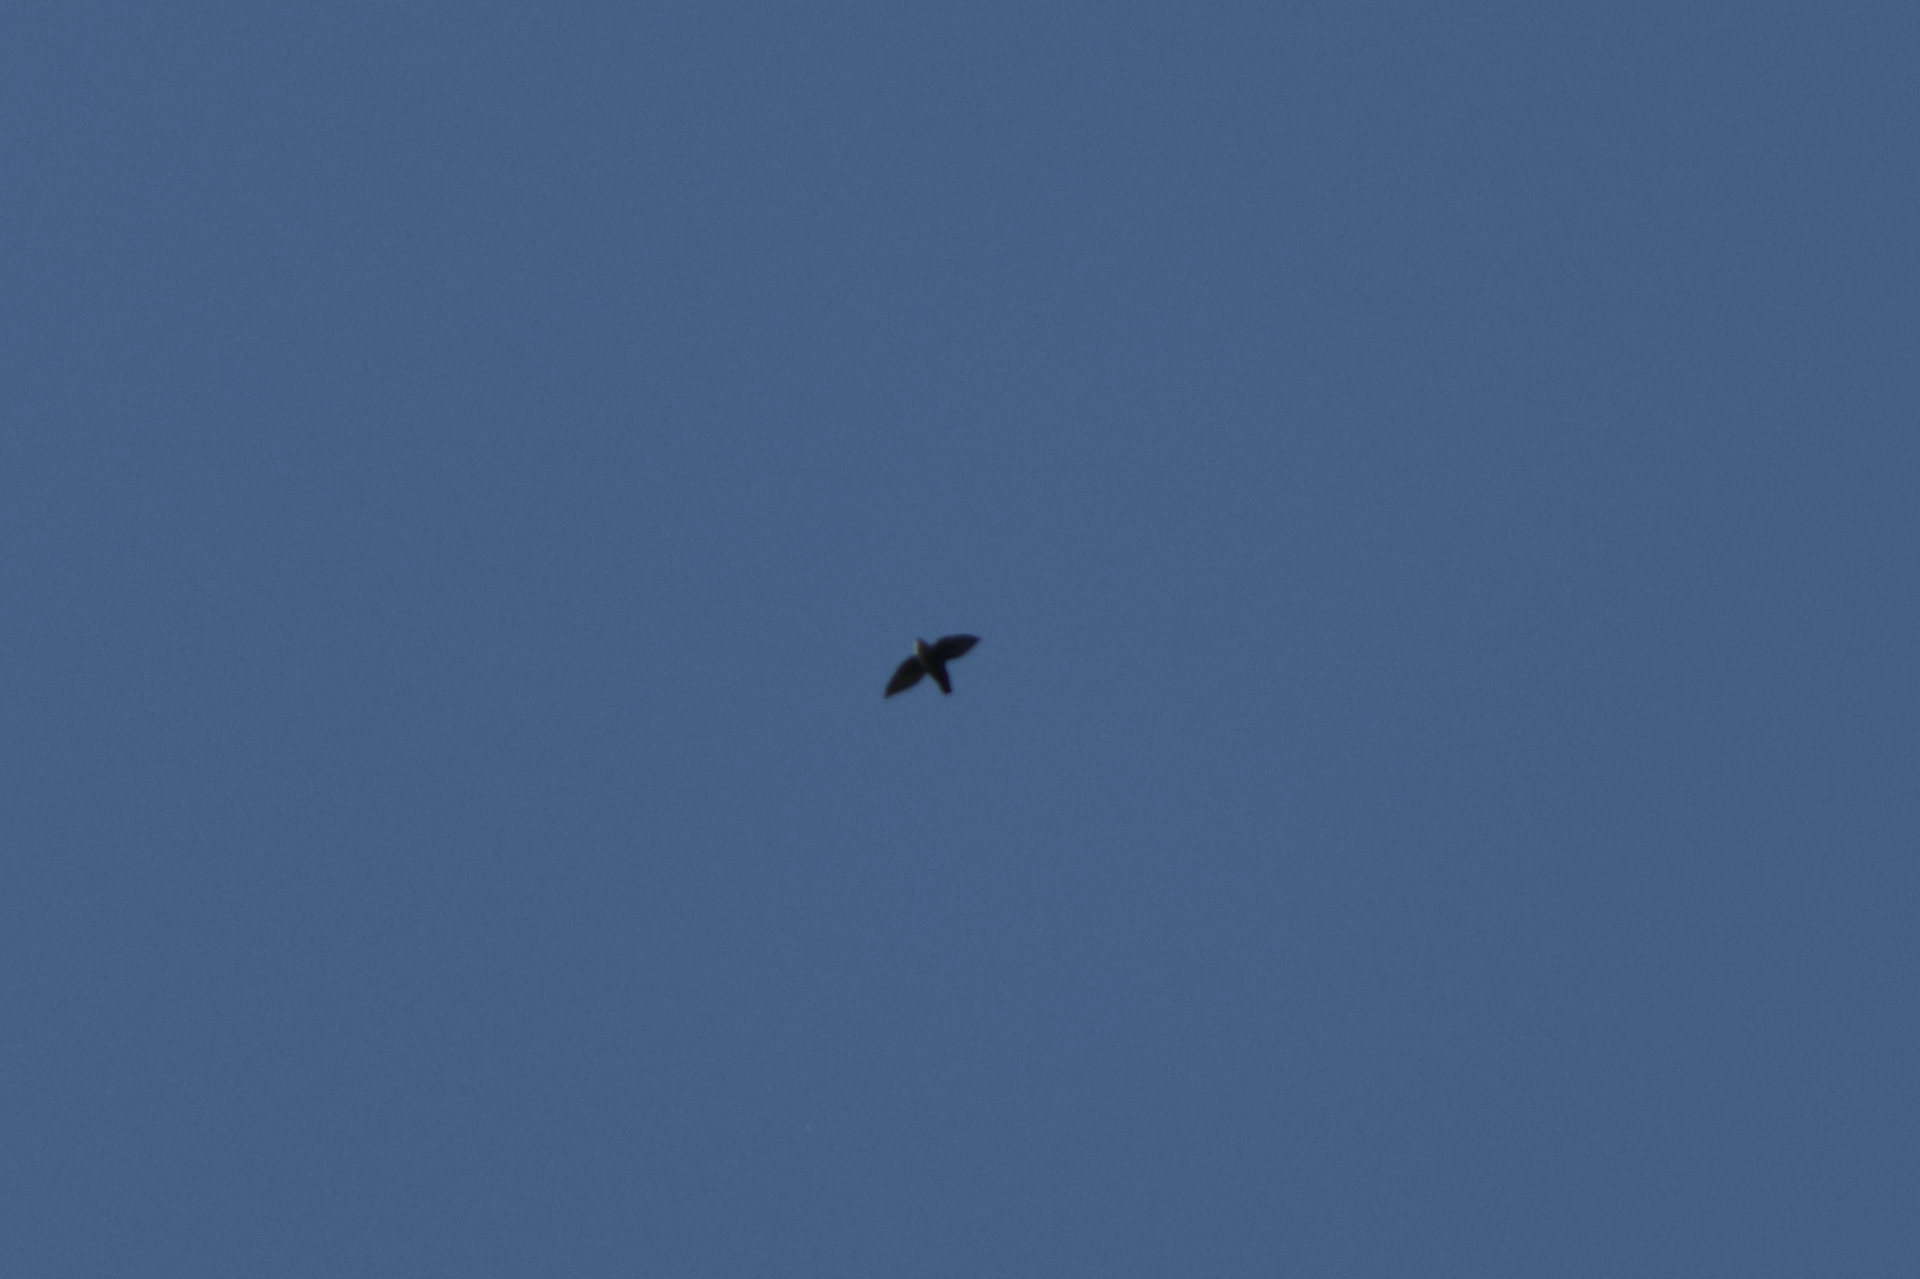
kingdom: Animalia
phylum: Chordata
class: Aves
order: Apodiformes
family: Apodidae
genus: Chaetura
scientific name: Chaetura pelagica
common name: Chimney swift
